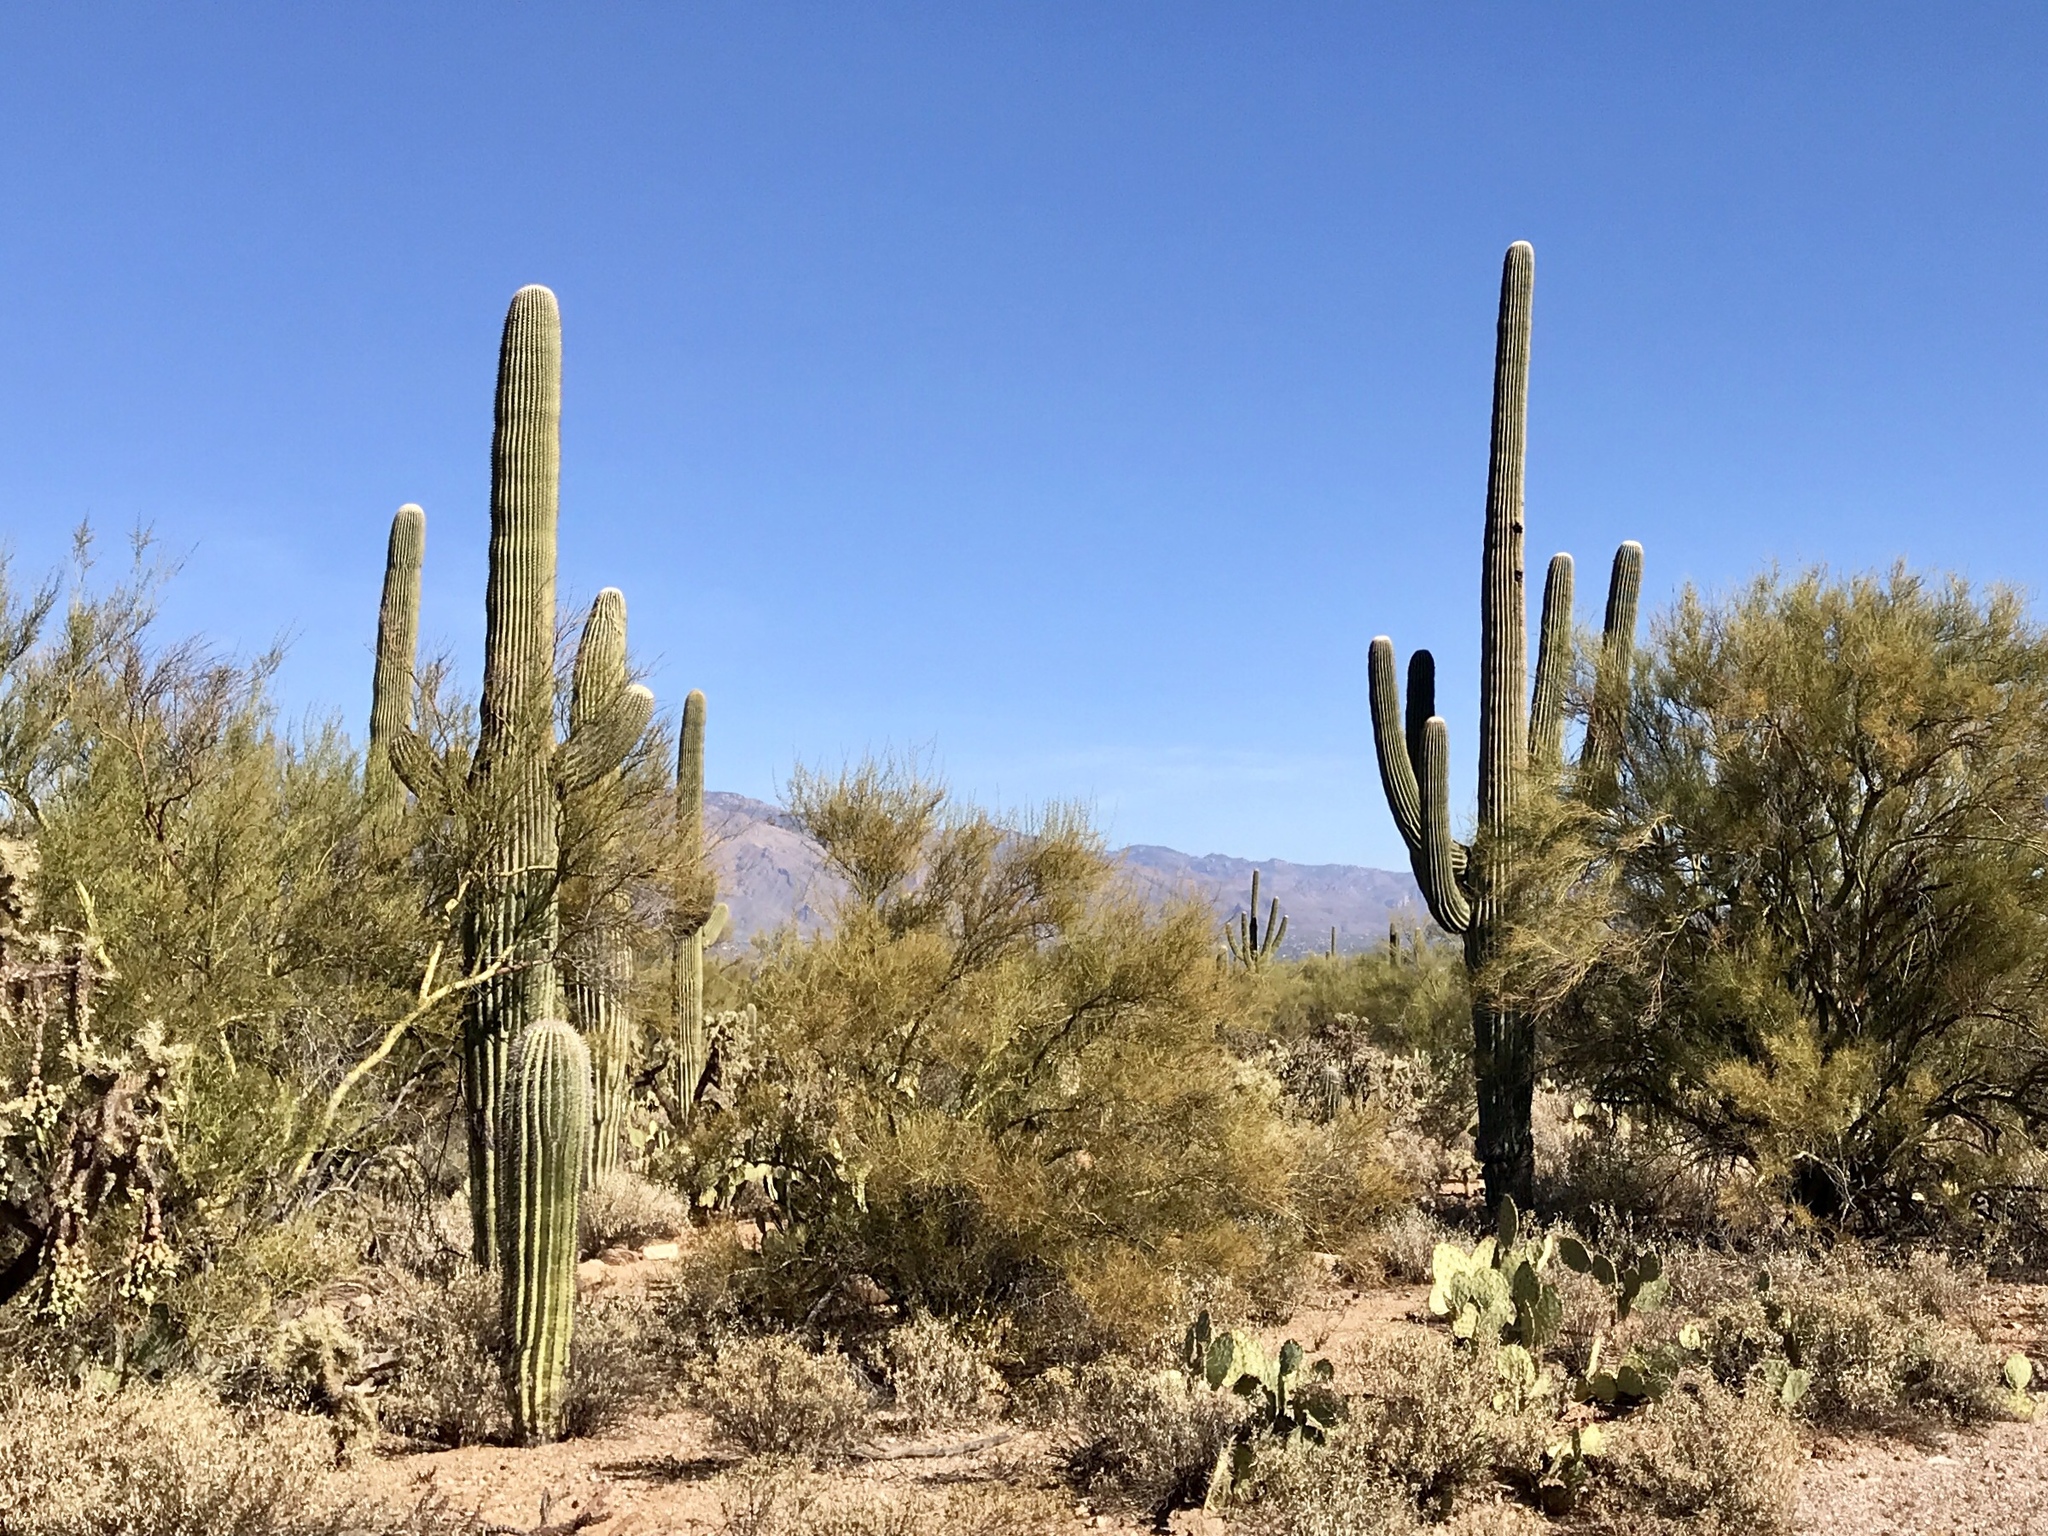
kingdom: Plantae
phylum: Tracheophyta
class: Magnoliopsida
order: Caryophyllales
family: Cactaceae
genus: Carnegiea
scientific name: Carnegiea gigantea
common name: Saguaro
